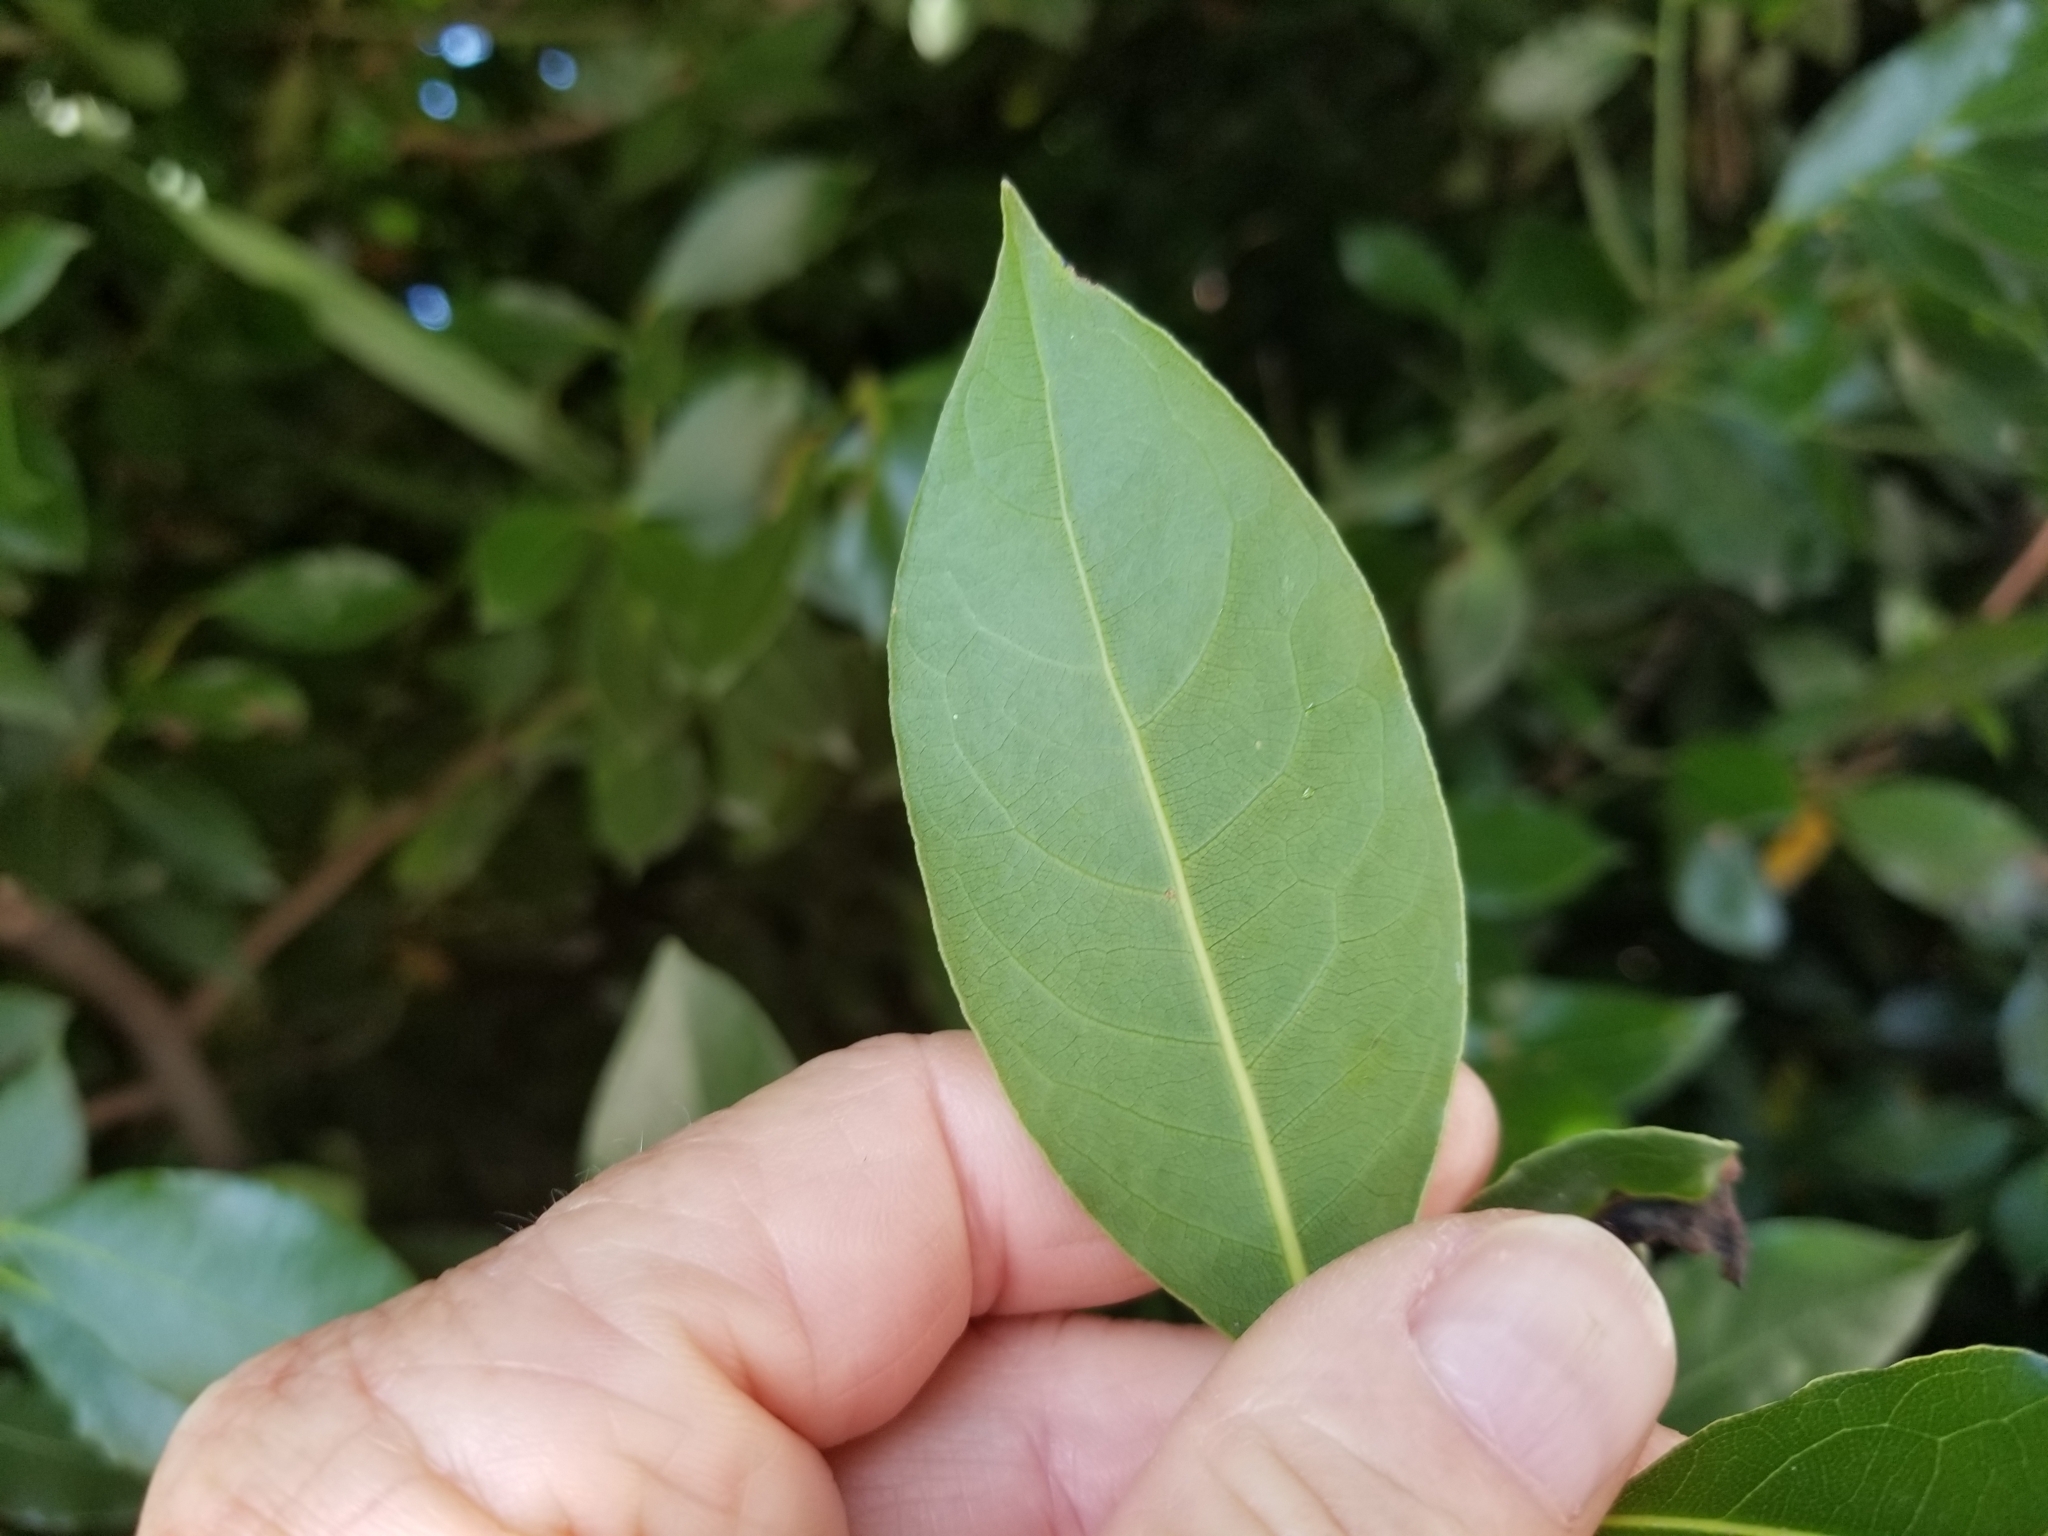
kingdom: Plantae
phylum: Tracheophyta
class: Magnoliopsida
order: Laurales
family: Lauraceae
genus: Laurus
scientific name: Laurus nobilis
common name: Bay
